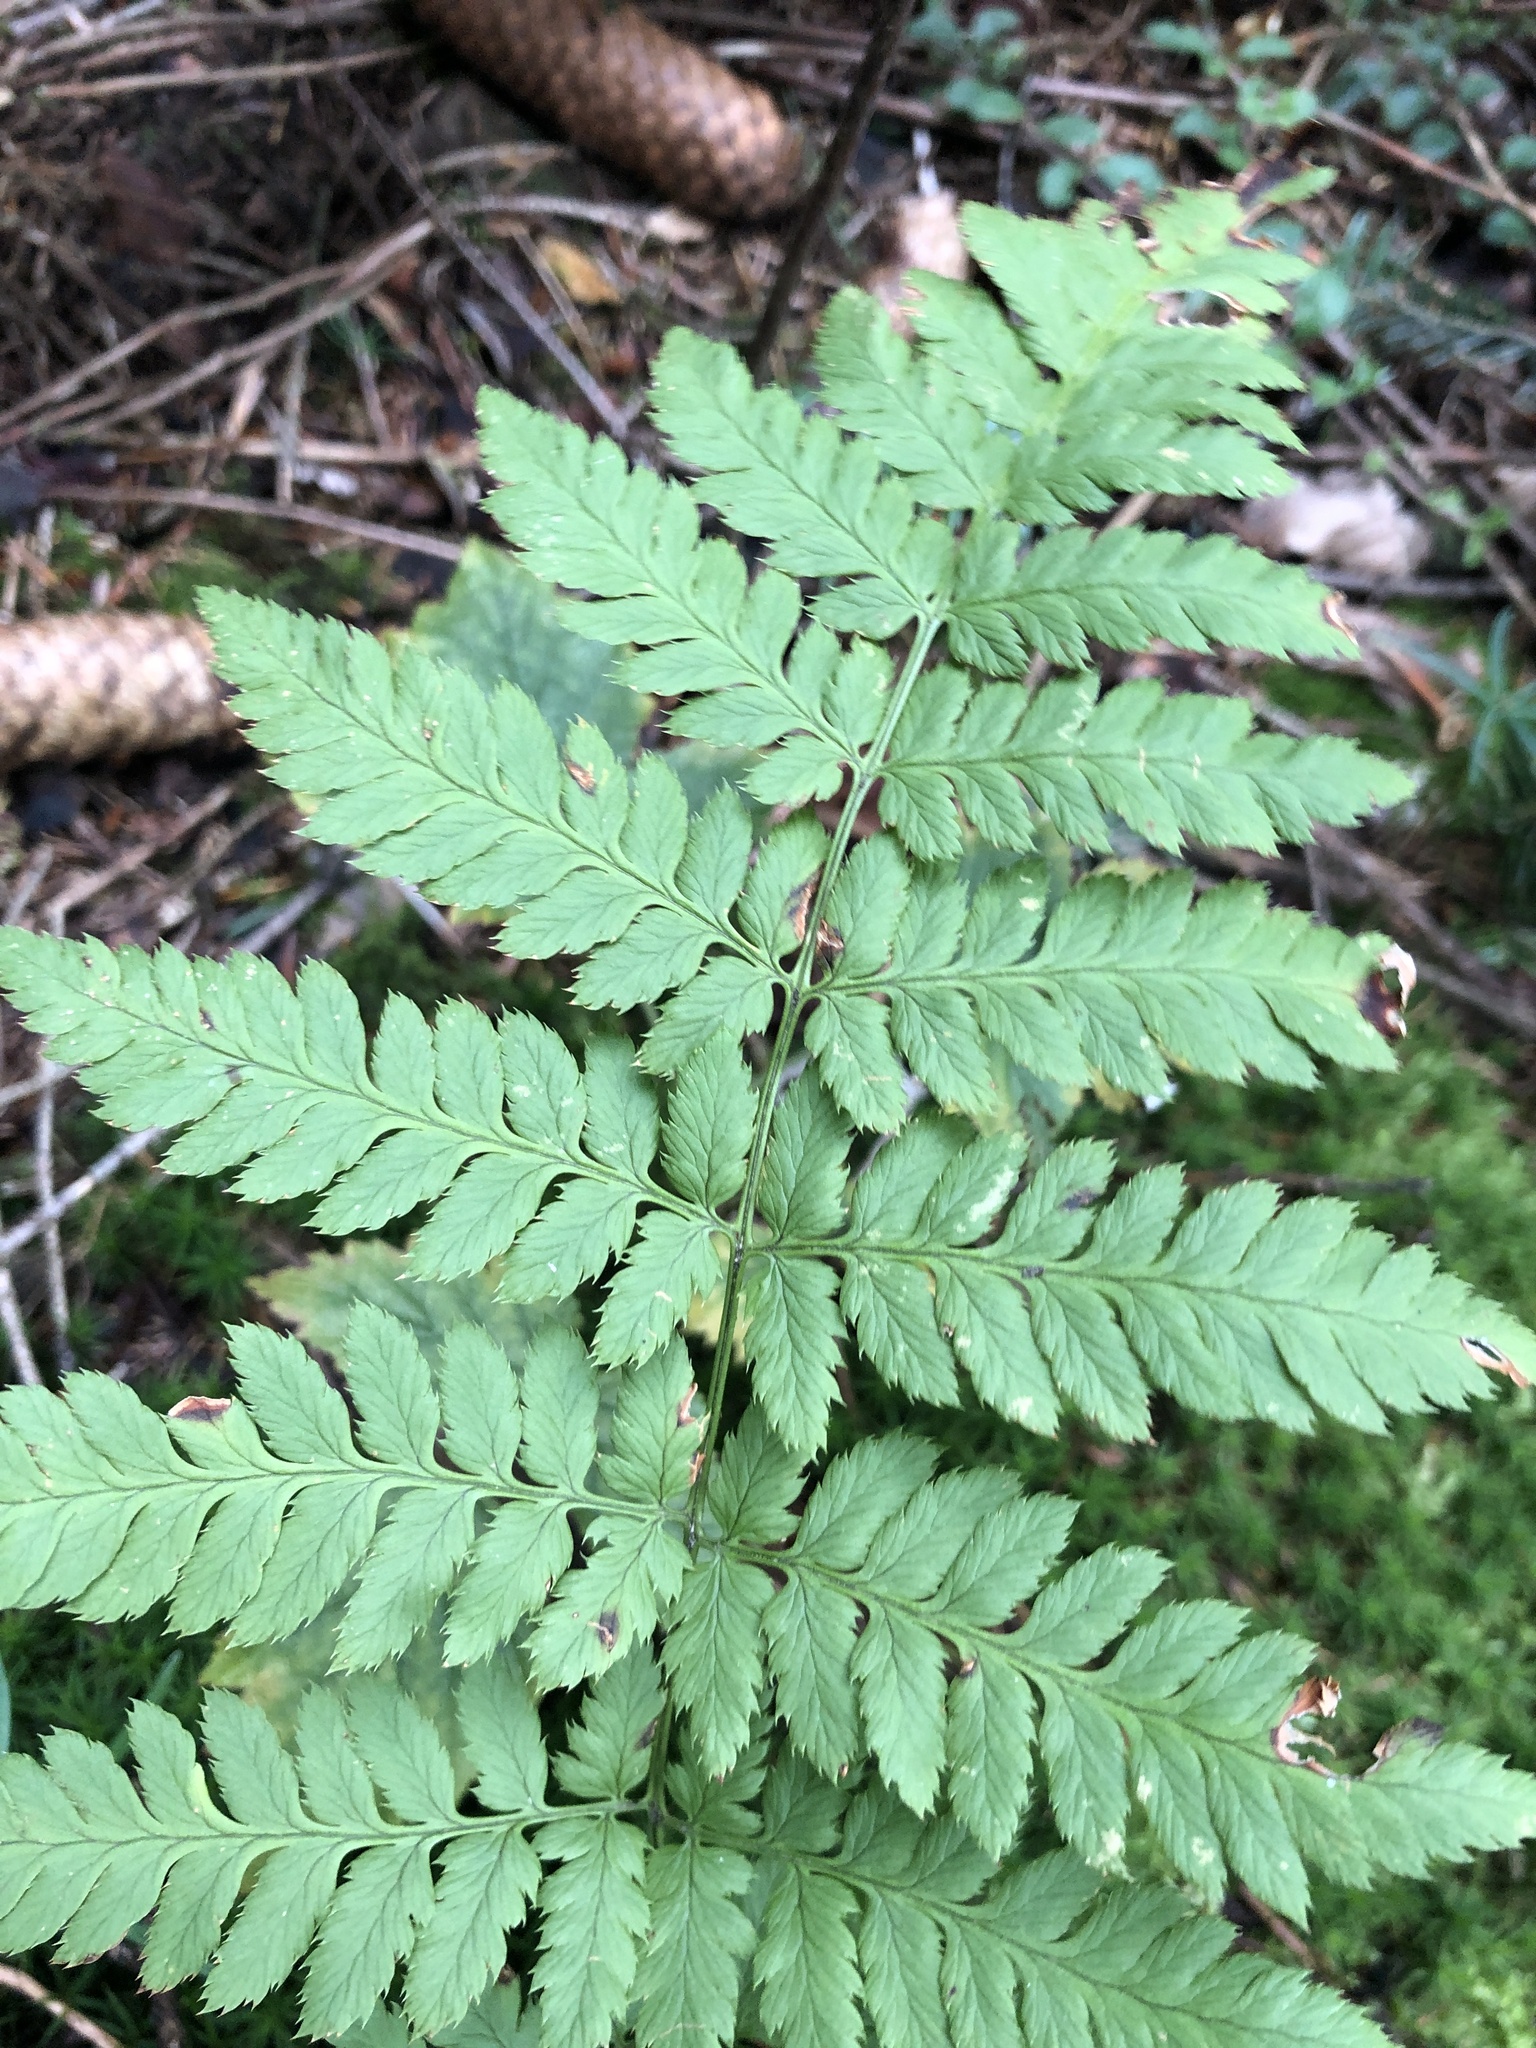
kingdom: Plantae
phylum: Tracheophyta
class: Polypodiopsida
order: Polypodiales
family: Dryopteridaceae
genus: Dryopteris
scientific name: Dryopteris carthusiana
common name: Narrow buckler-fern
